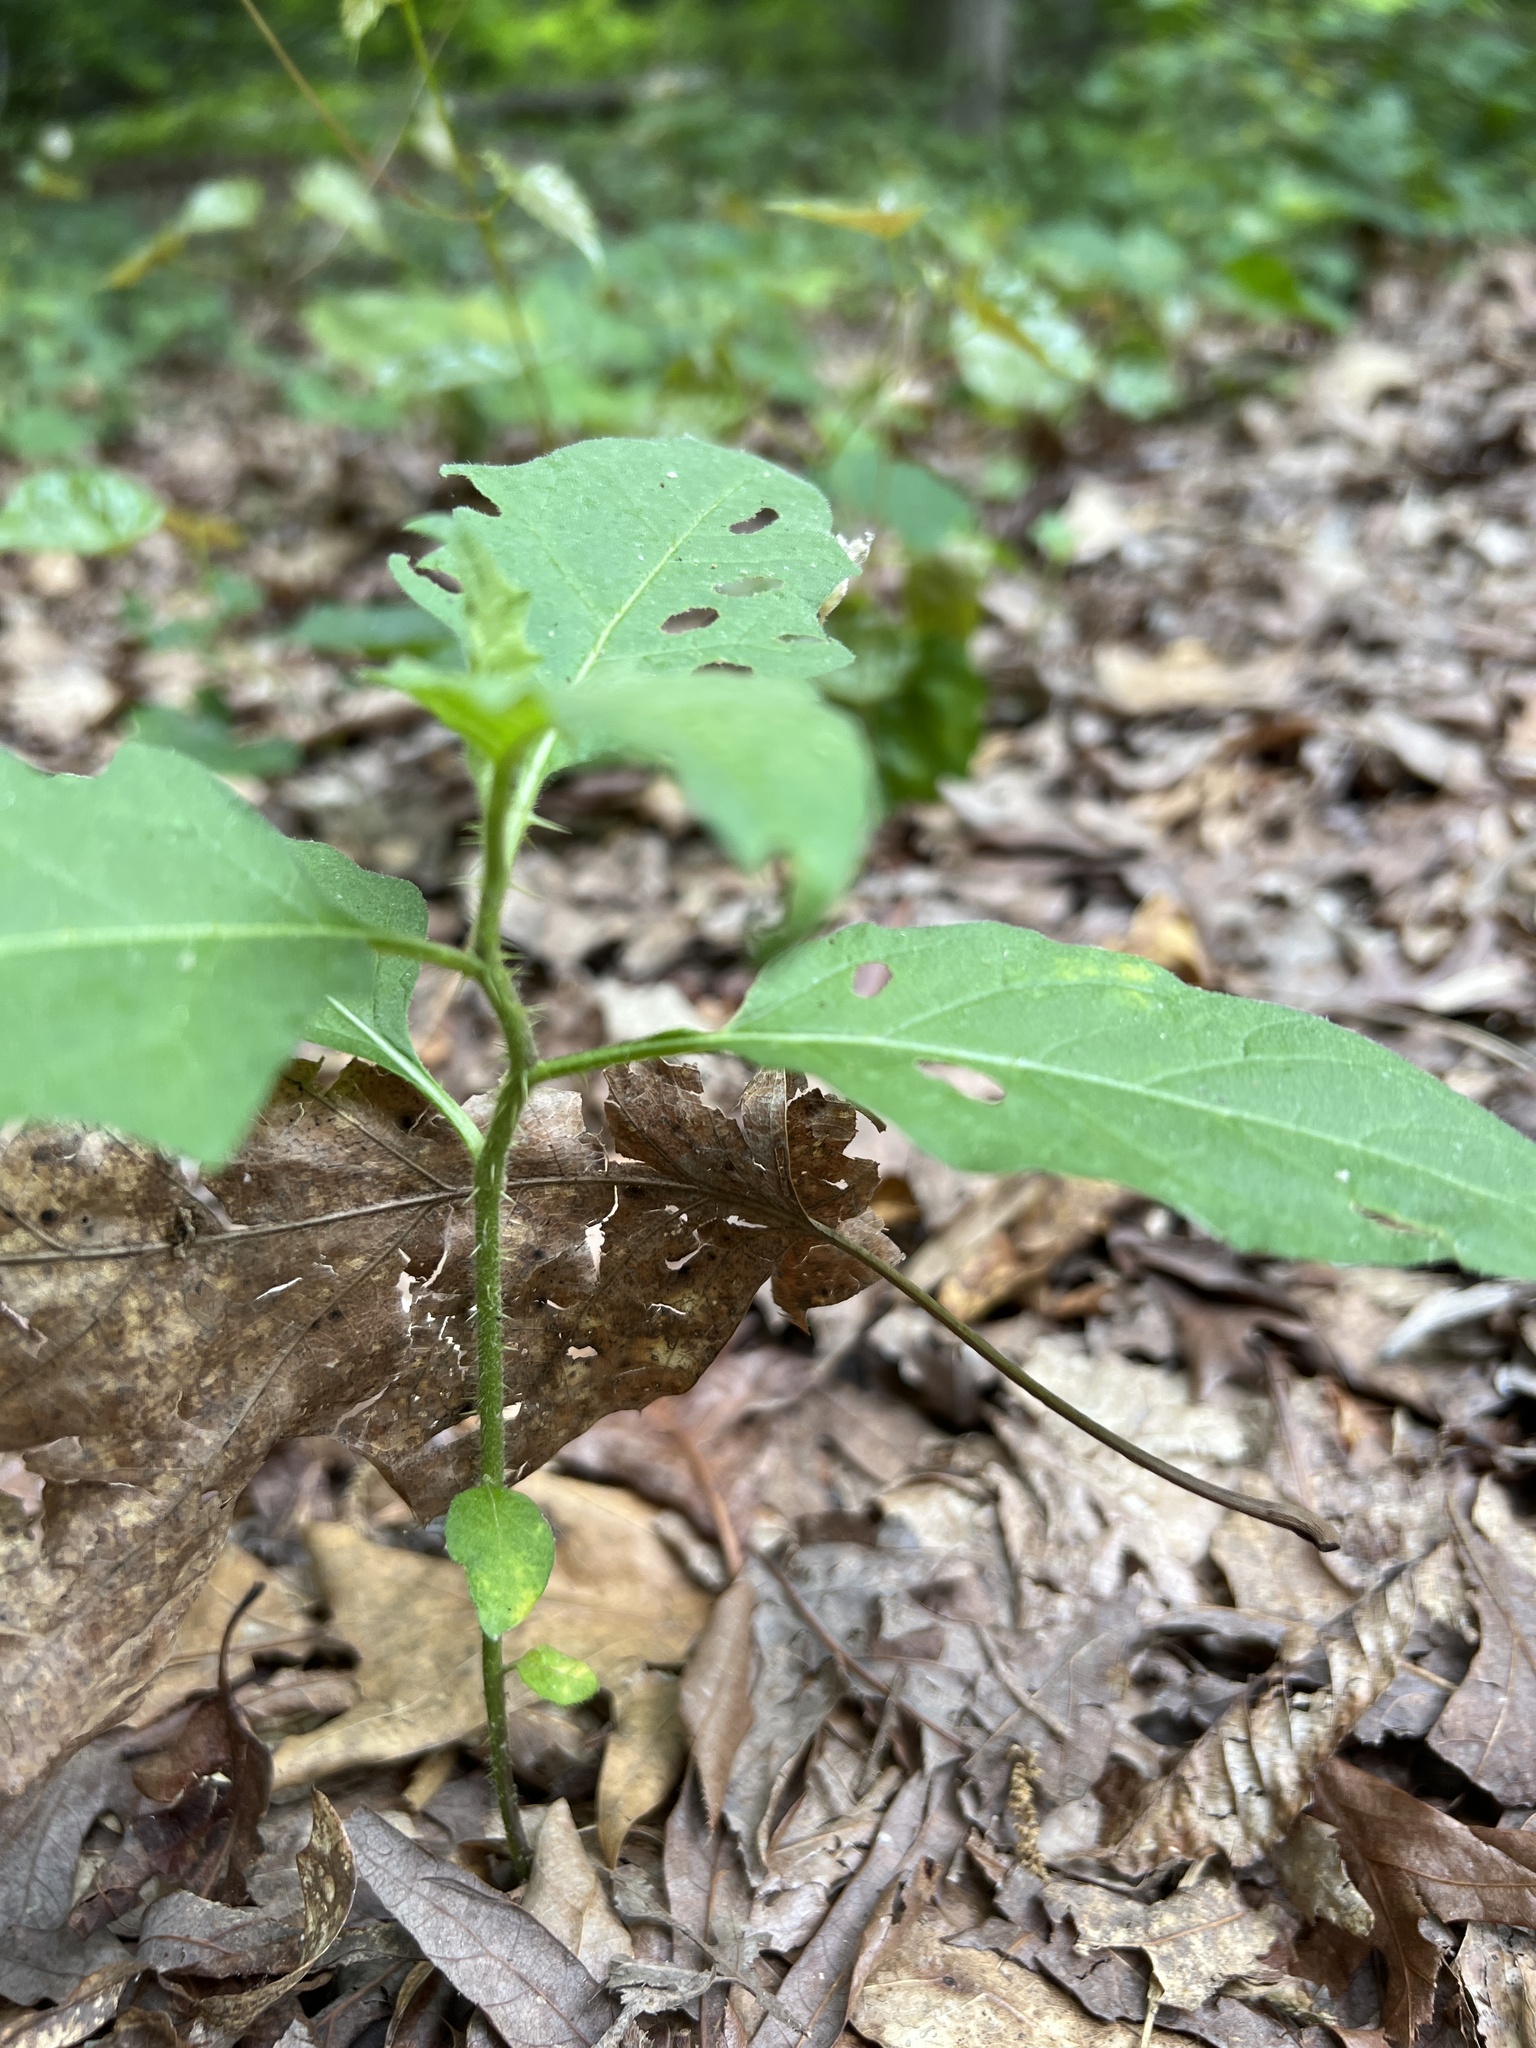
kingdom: Plantae
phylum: Tracheophyta
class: Magnoliopsida
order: Solanales
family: Solanaceae
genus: Solanum
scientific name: Solanum carolinense
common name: Horse-nettle
